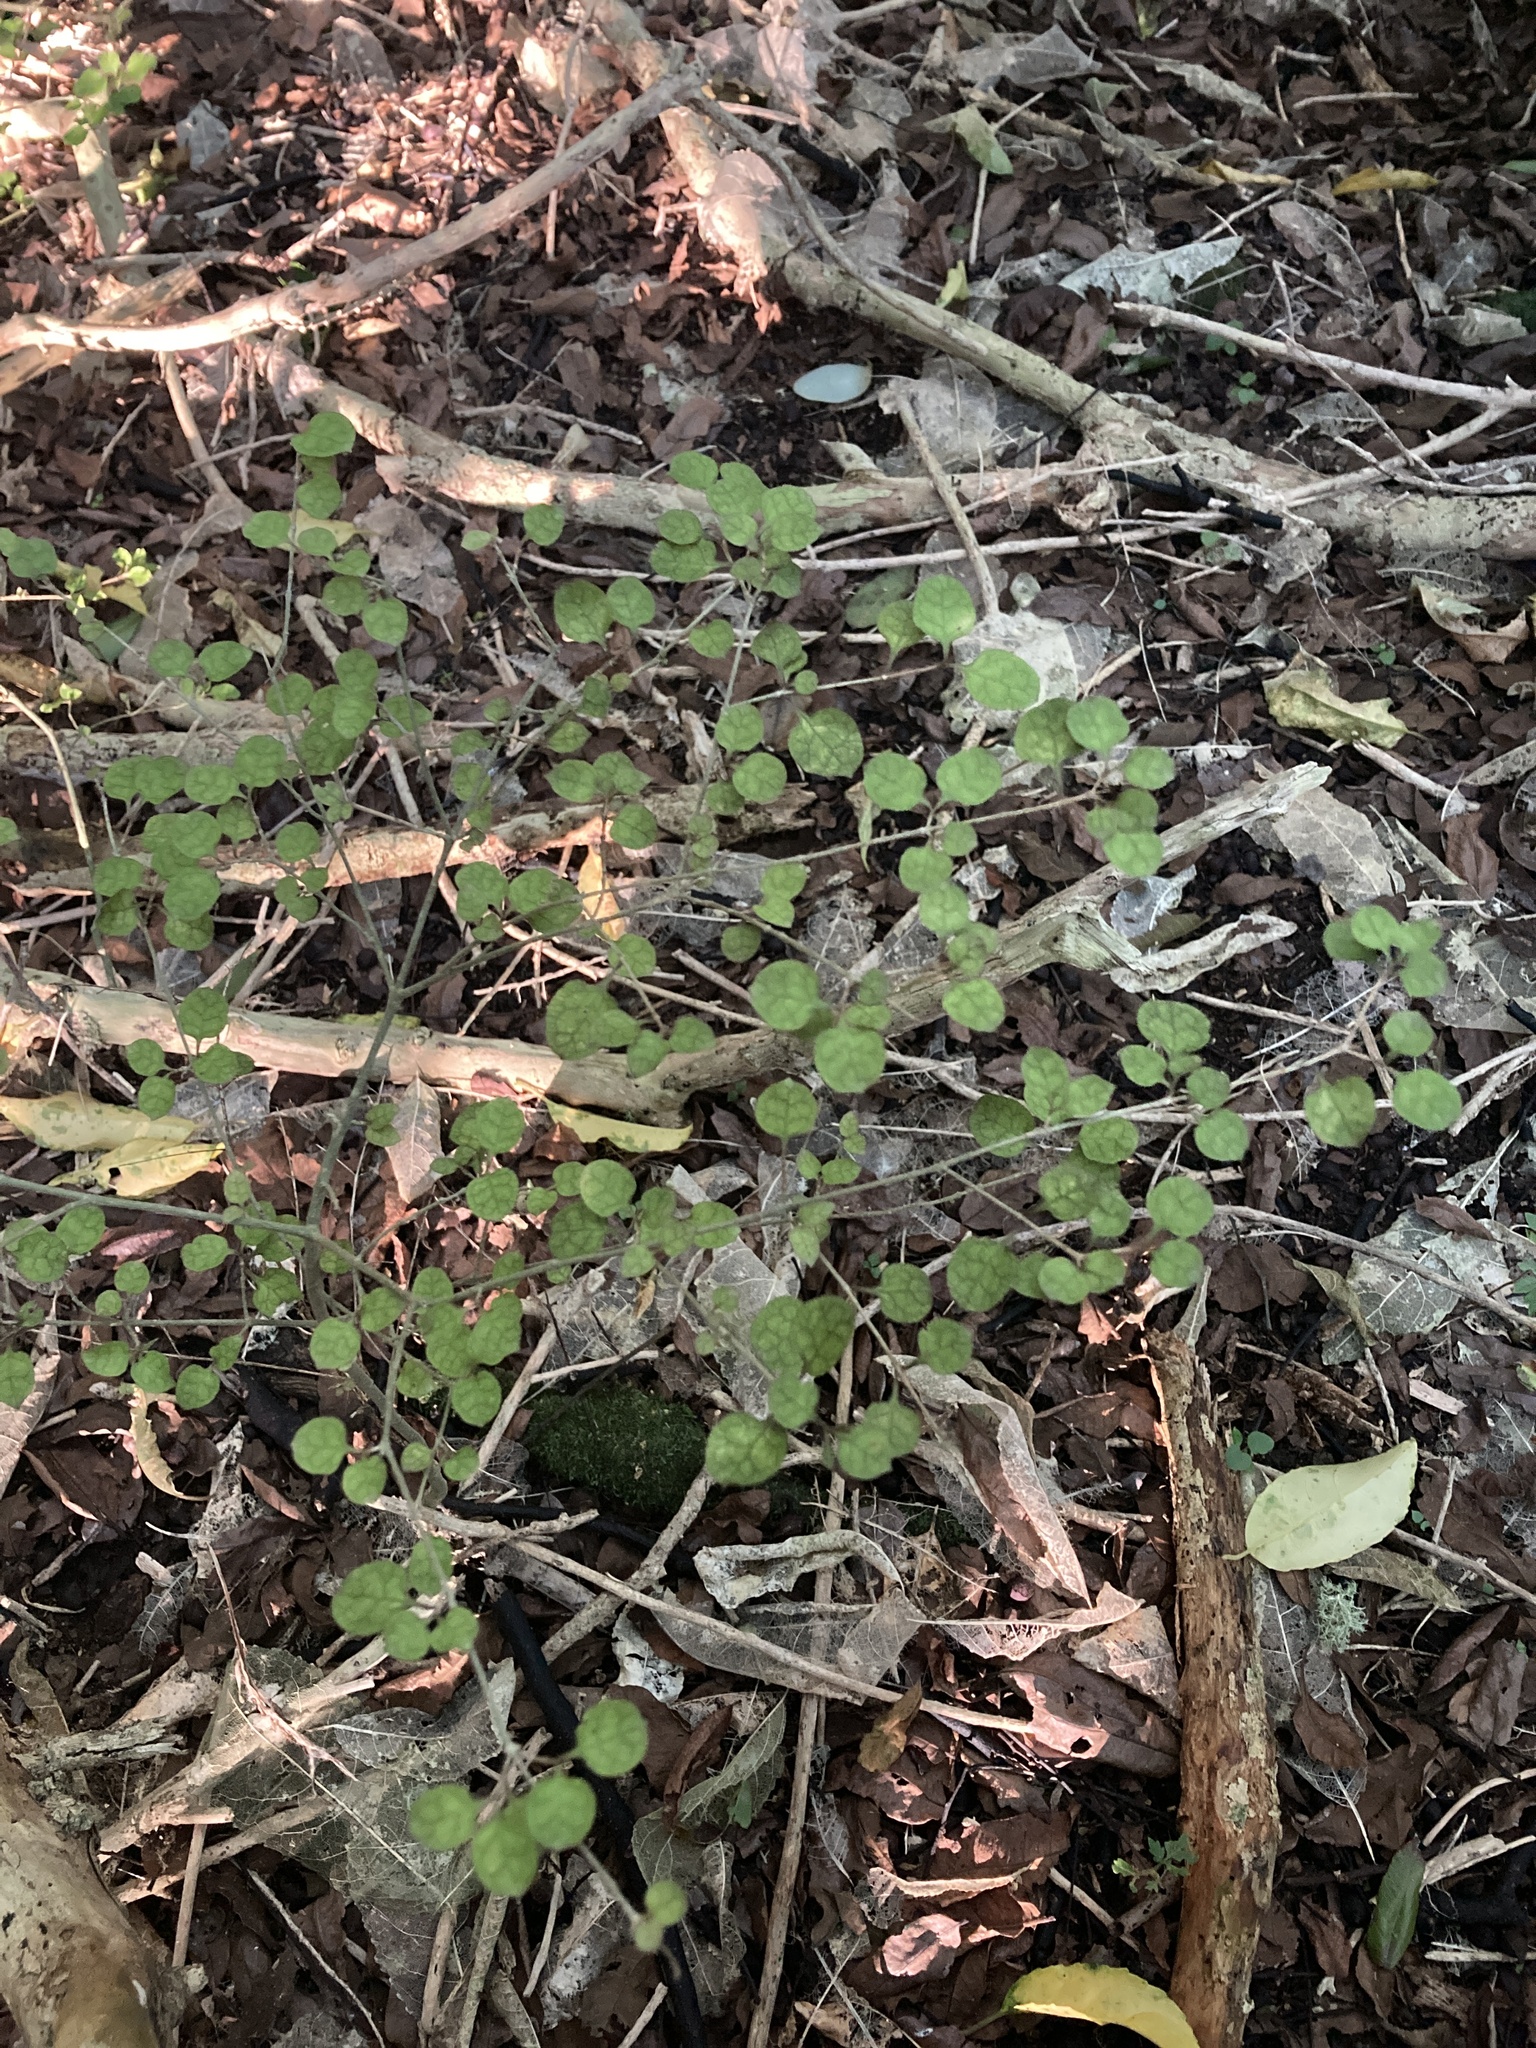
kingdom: Plantae
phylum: Tracheophyta
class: Magnoliopsida
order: Gentianales
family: Rubiaceae
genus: Coprosma
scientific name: Coprosma areolata
